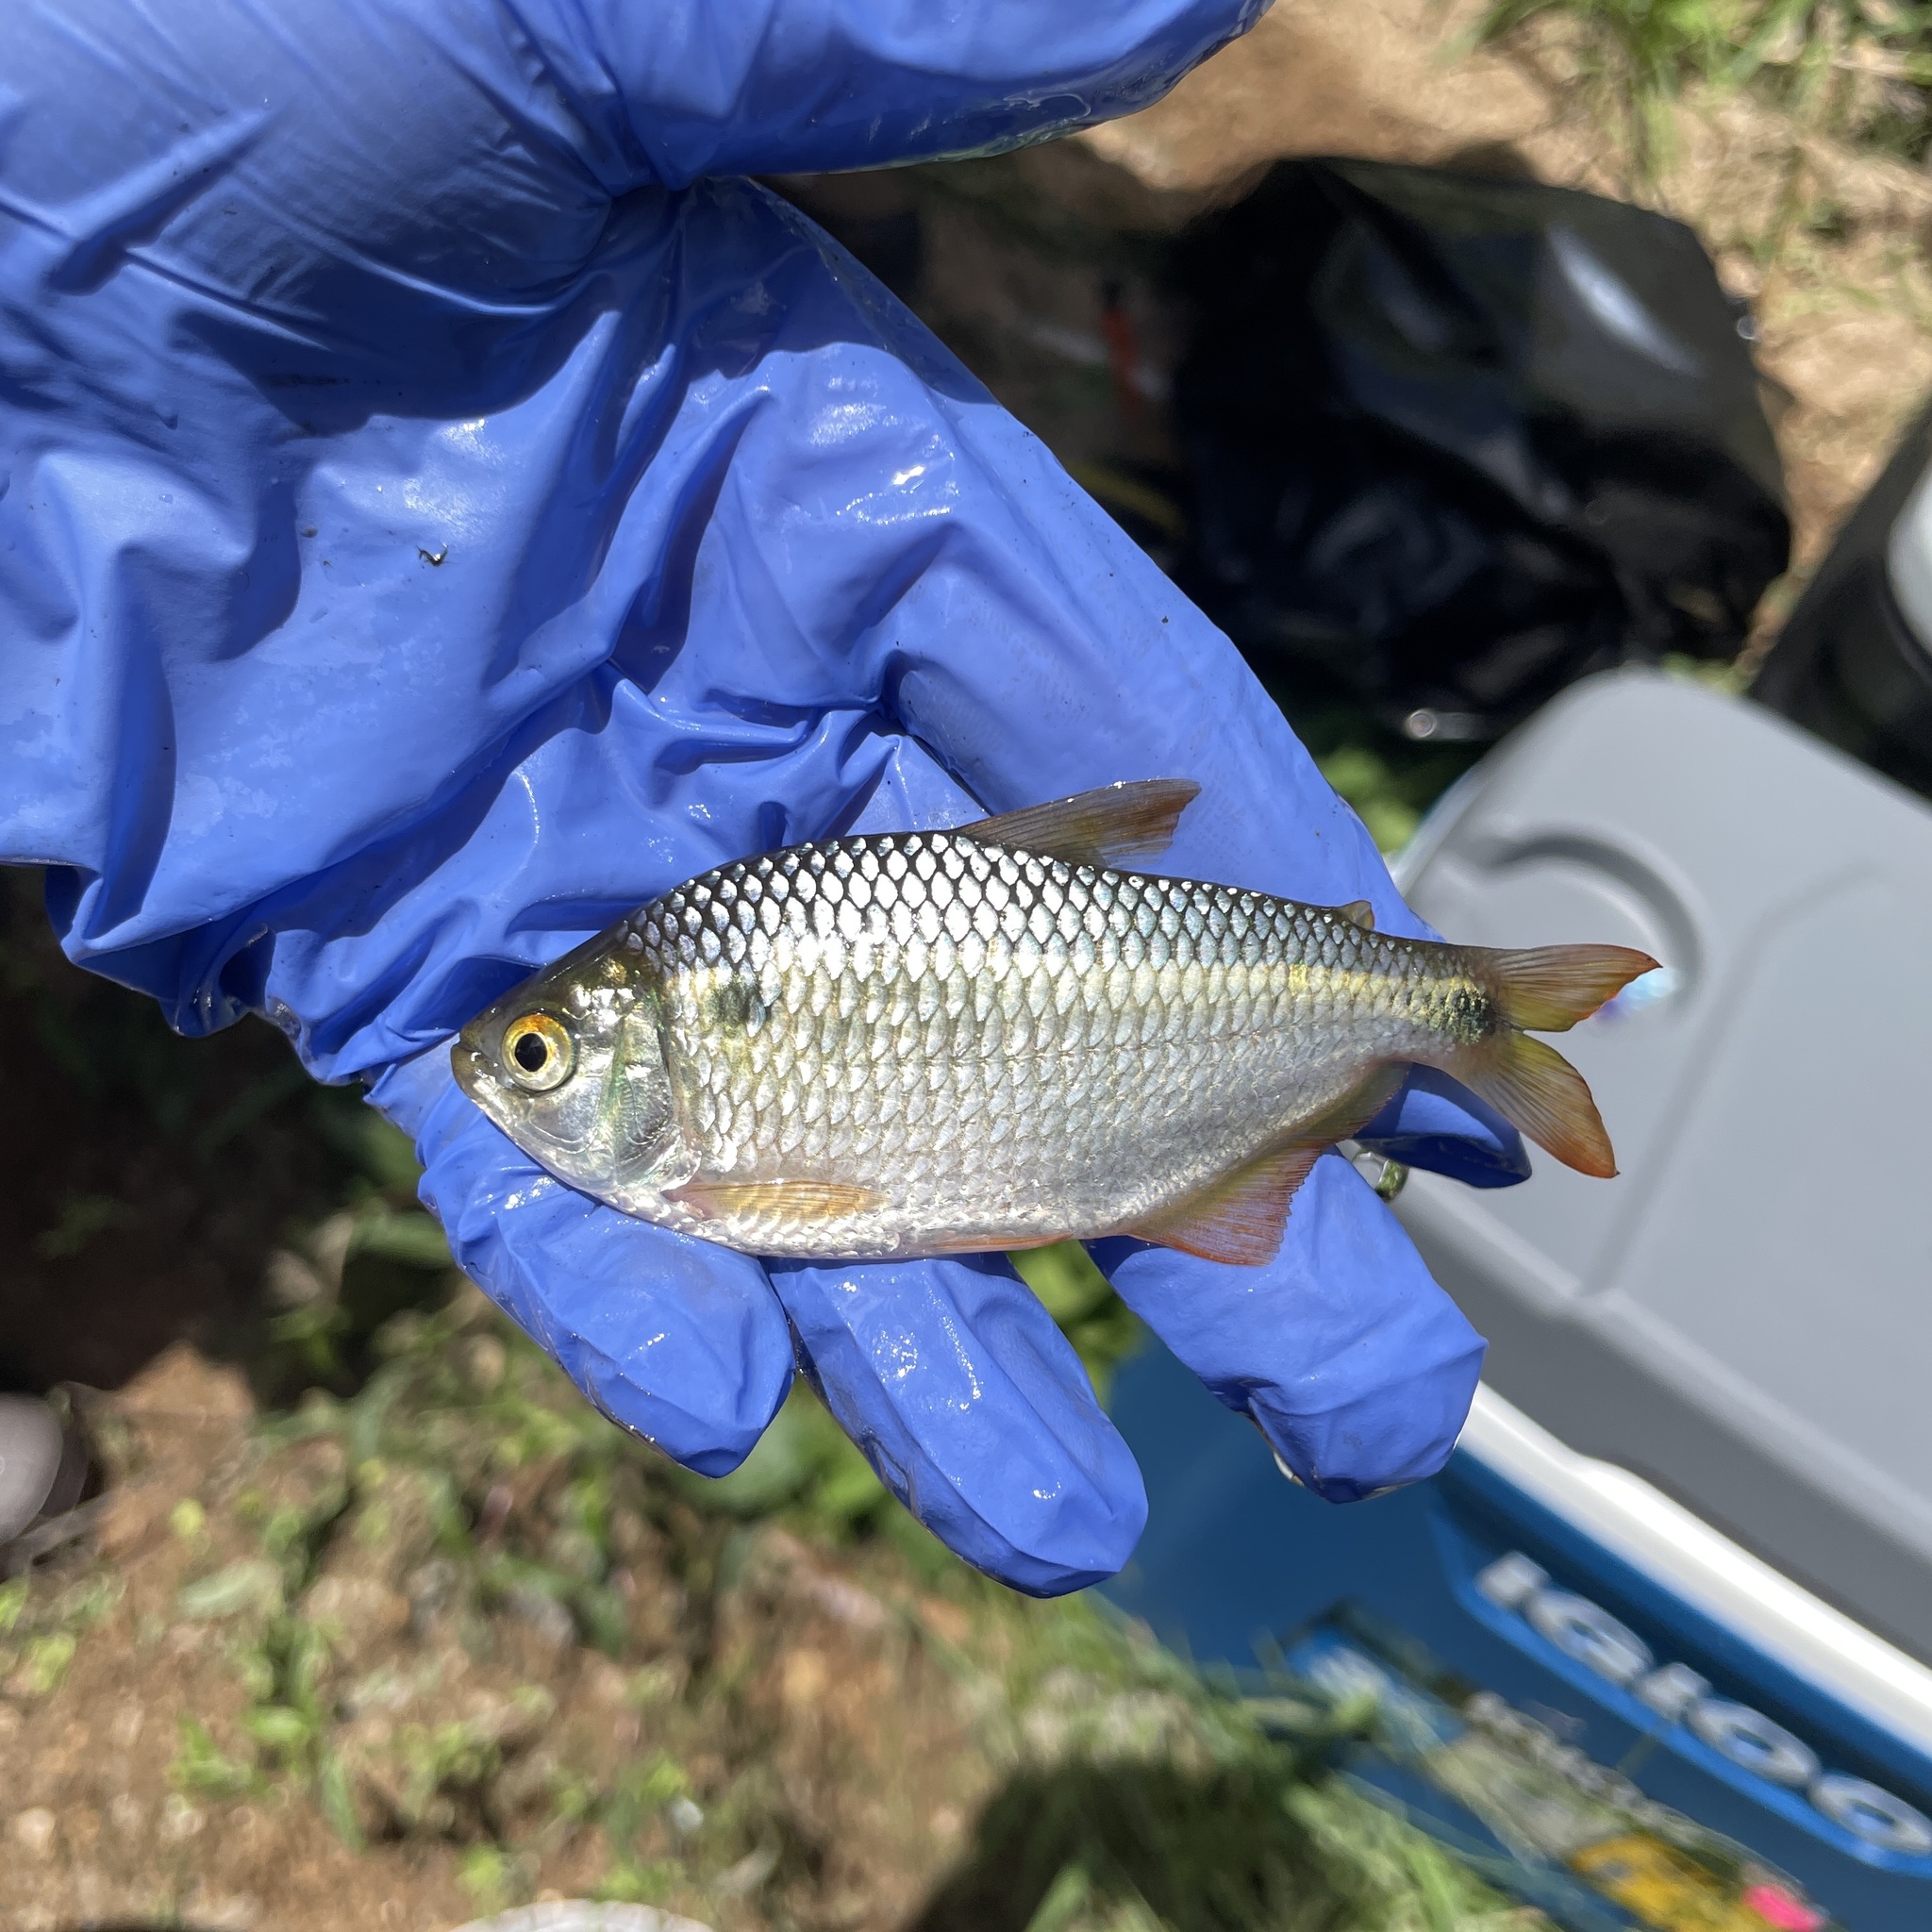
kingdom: Animalia
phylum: Chordata
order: Characiformes
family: Characidae
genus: Astyanax
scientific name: Astyanax bimaculatus
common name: Twospot astyanax
